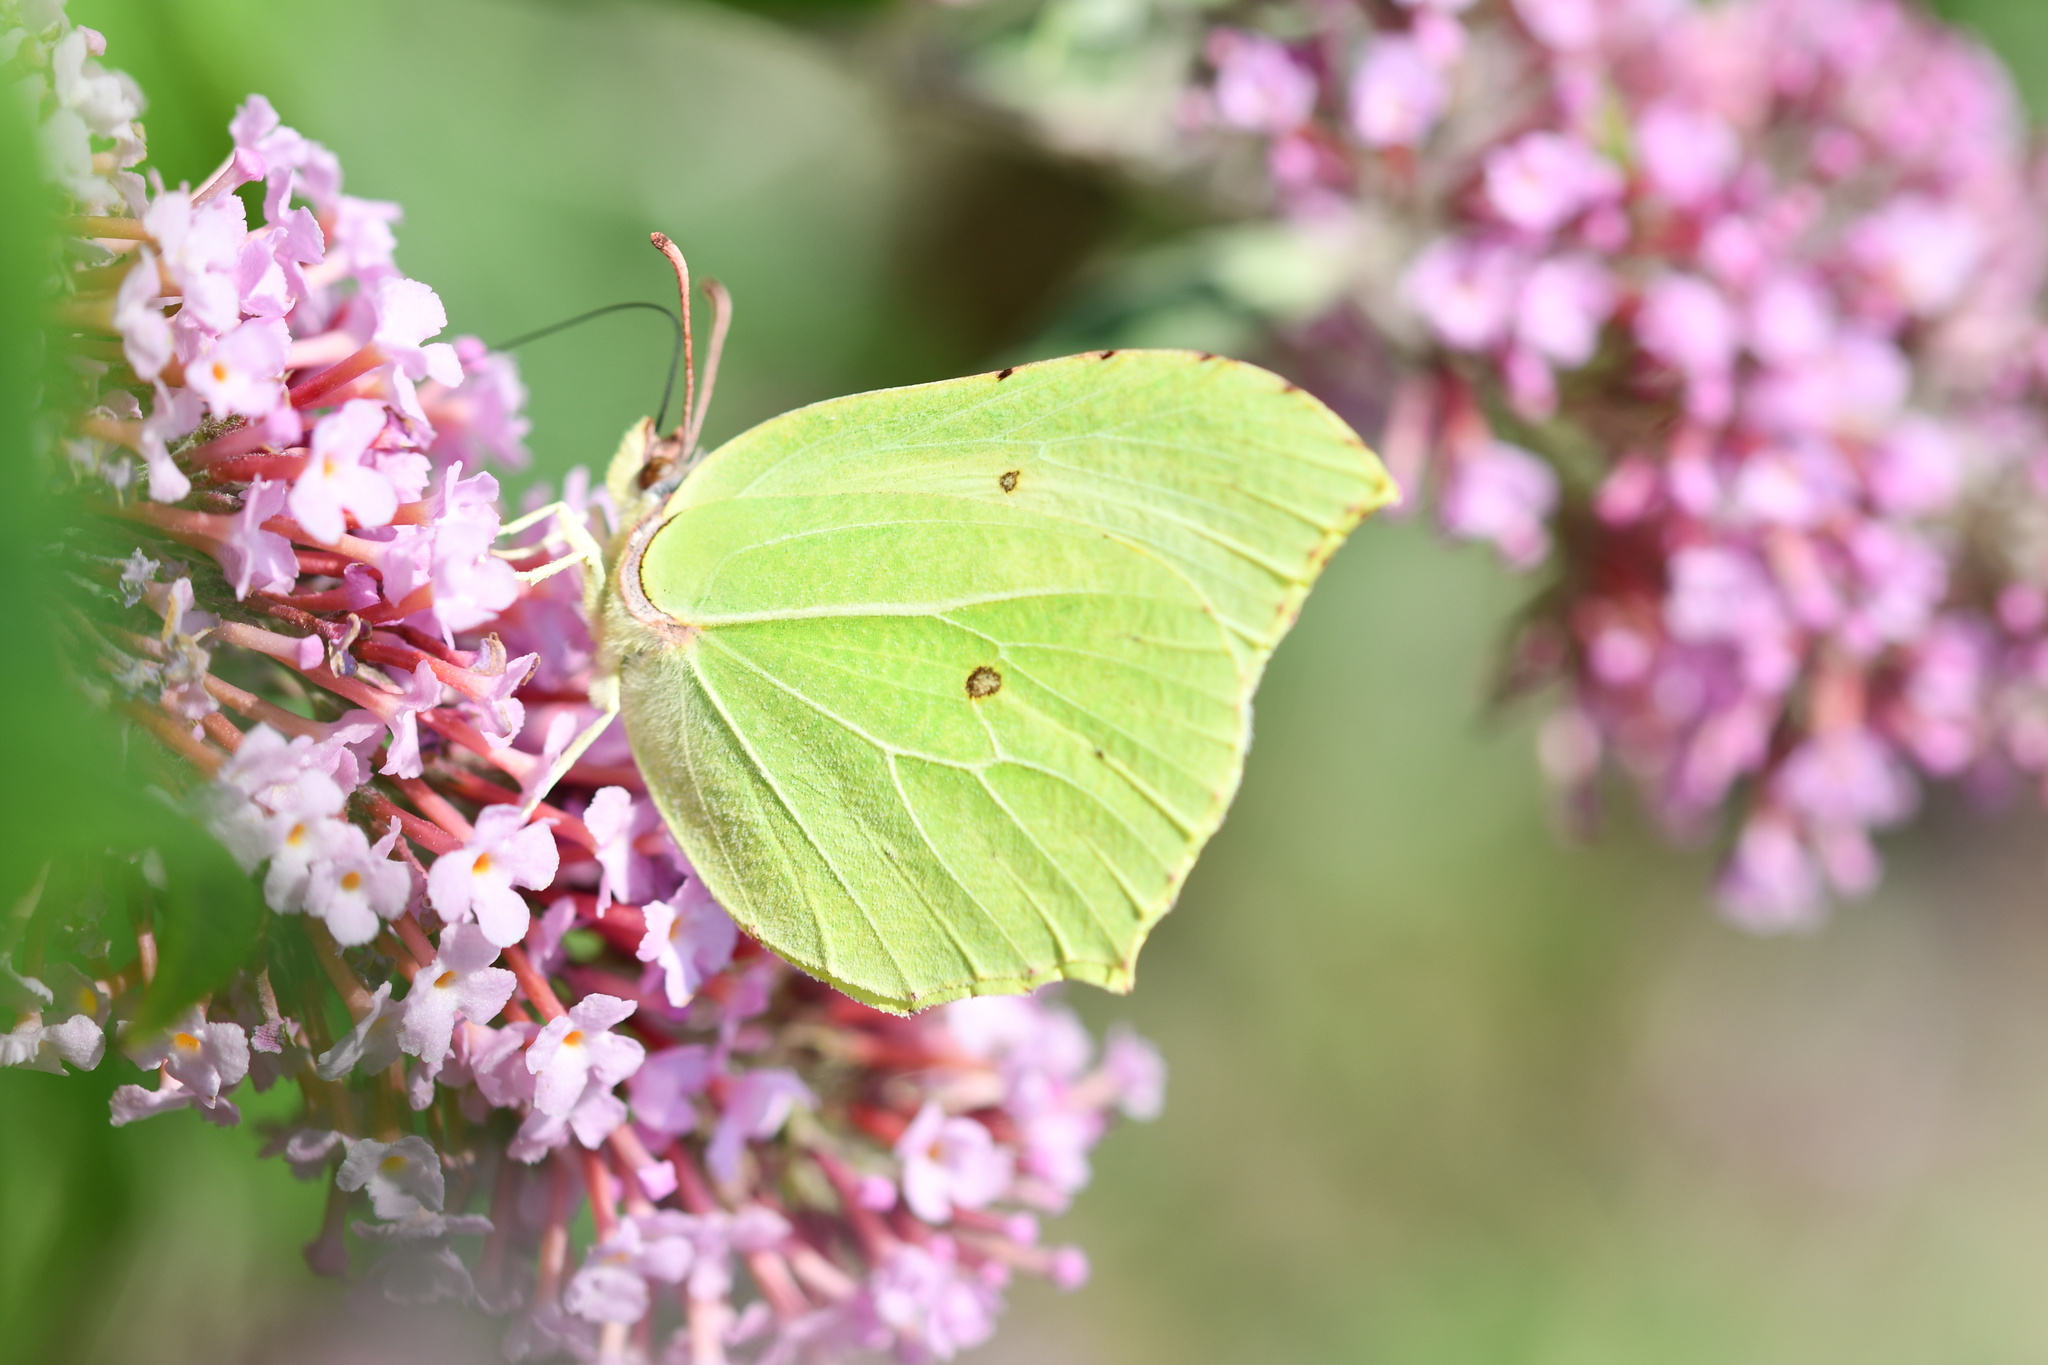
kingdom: Animalia
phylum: Arthropoda
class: Insecta
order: Lepidoptera
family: Pieridae
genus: Gonepteryx
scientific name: Gonepteryx rhamni
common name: Brimstone
